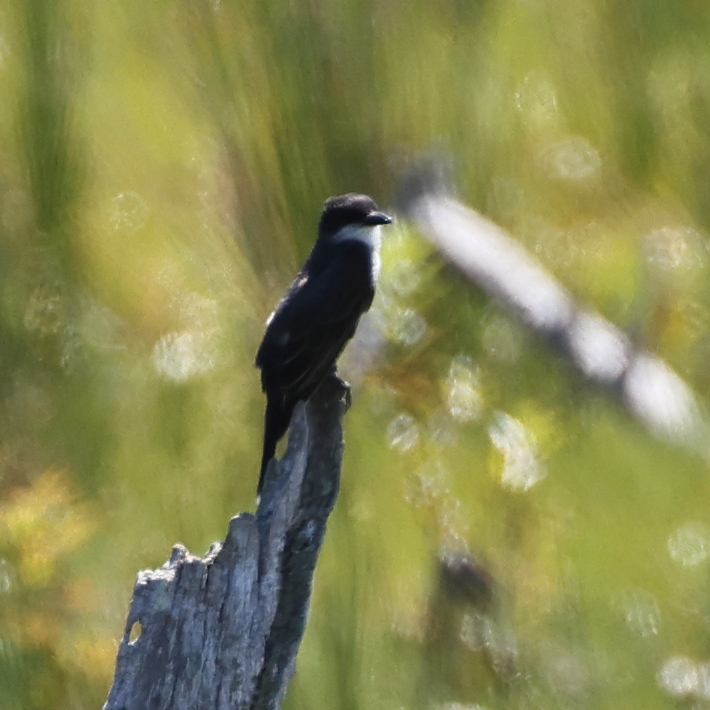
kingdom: Animalia
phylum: Chordata
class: Aves
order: Passeriformes
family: Tyrannidae
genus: Tyrannus
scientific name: Tyrannus tyrannus
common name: Eastern kingbird
